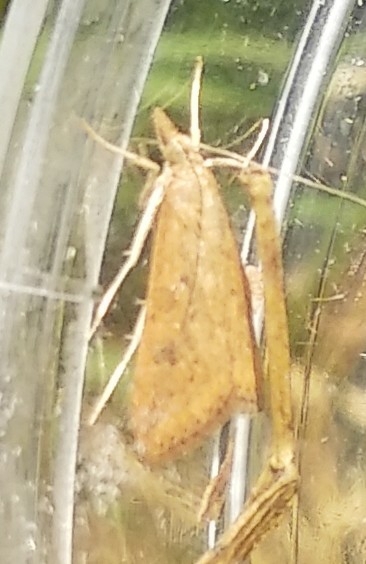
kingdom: Animalia
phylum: Arthropoda
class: Insecta
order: Lepidoptera
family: Crambidae
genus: Udea
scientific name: Udea ferrugalis
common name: Rusty dot
